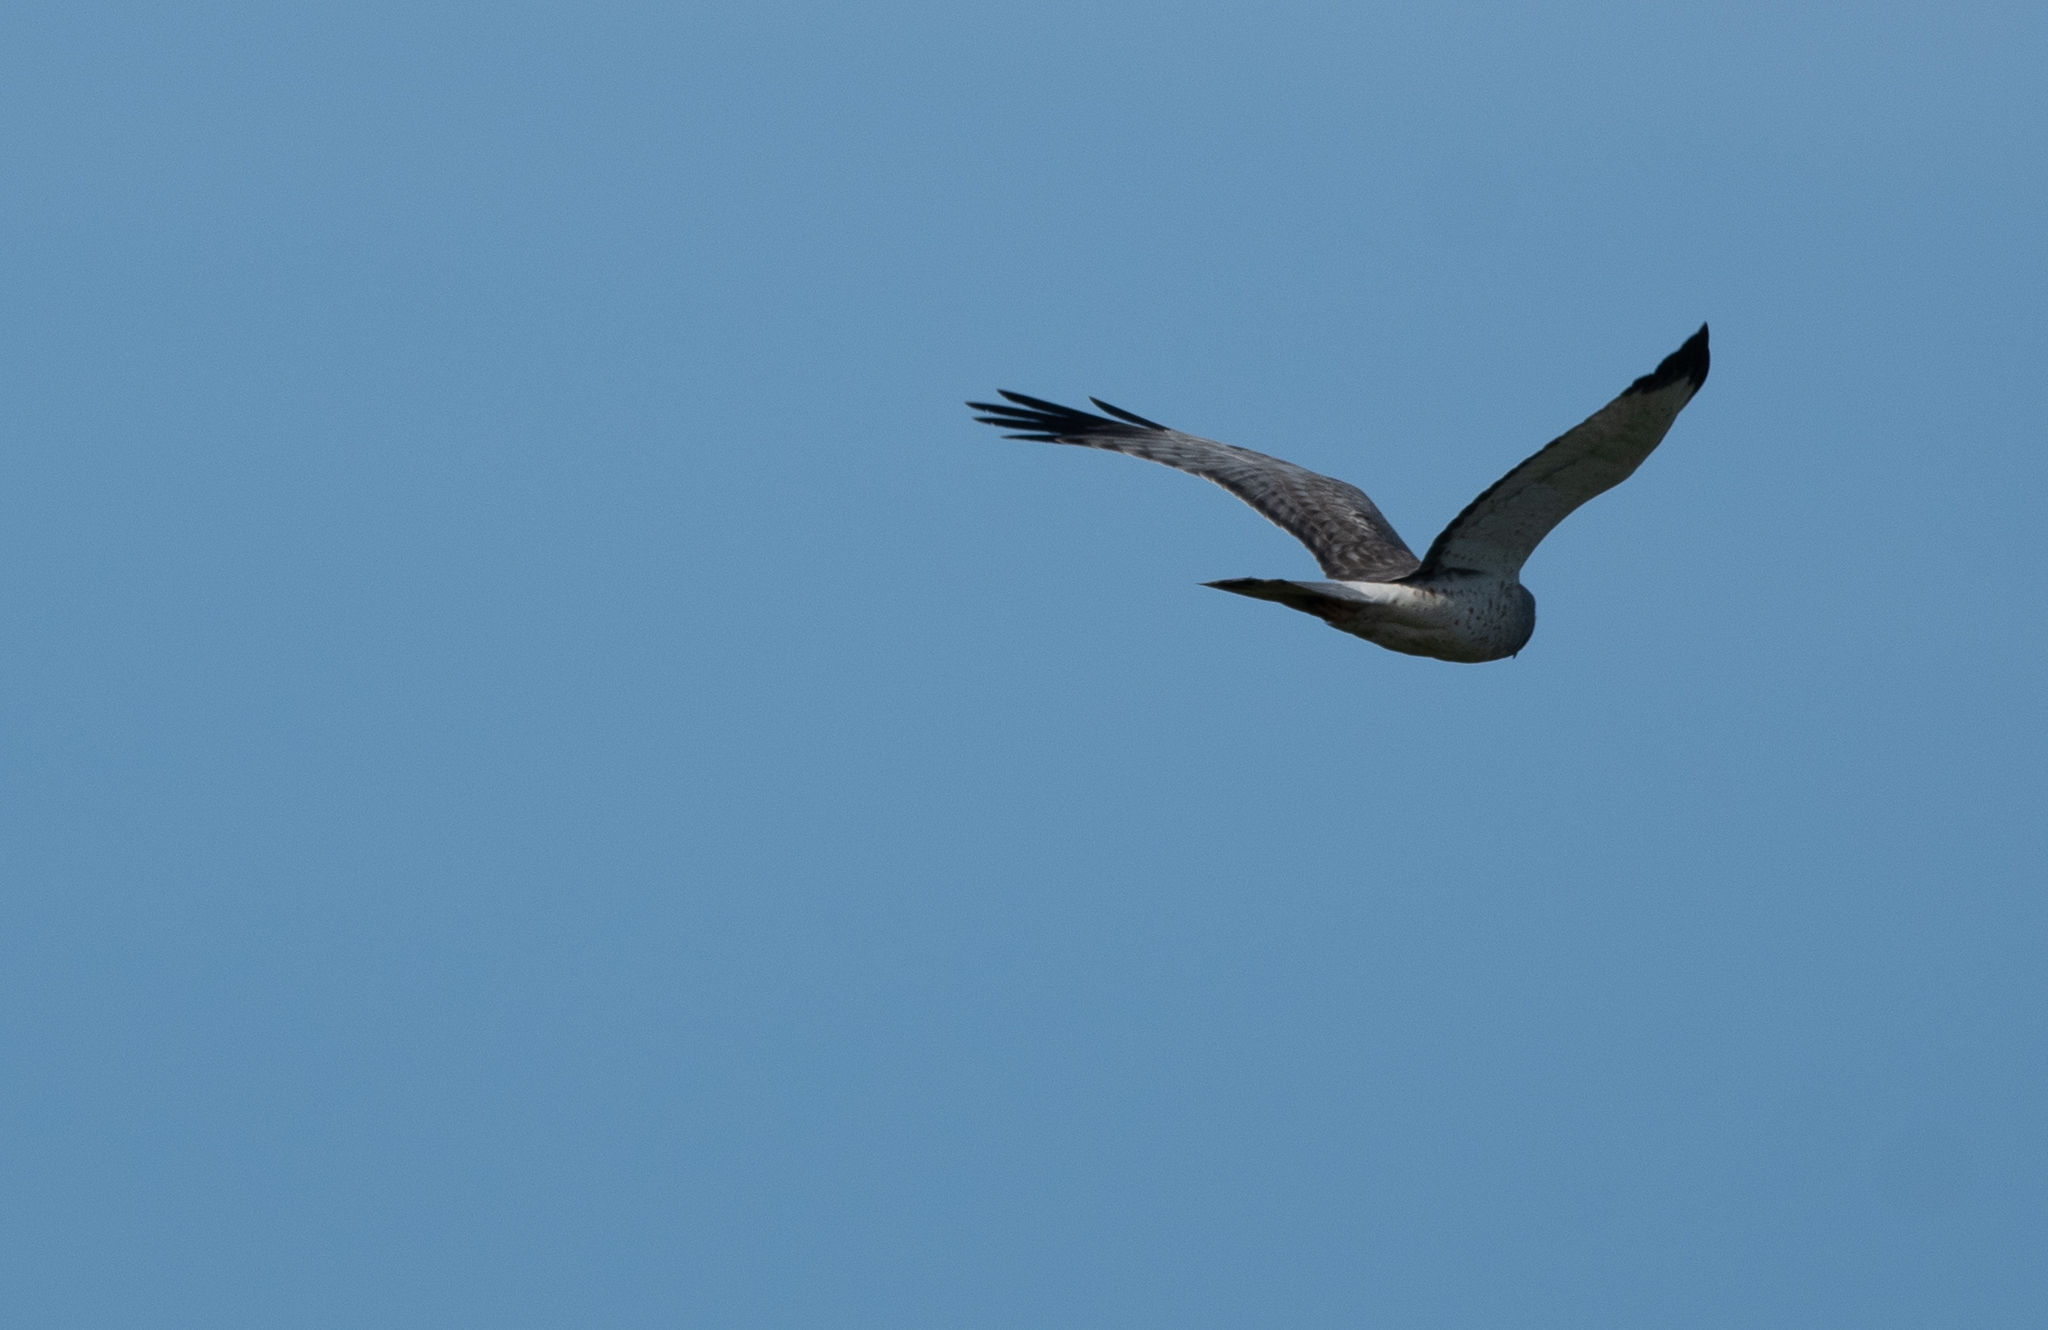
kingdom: Animalia
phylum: Chordata
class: Aves
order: Accipitriformes
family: Accipitridae
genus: Circus
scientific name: Circus cyaneus
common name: Hen harrier
